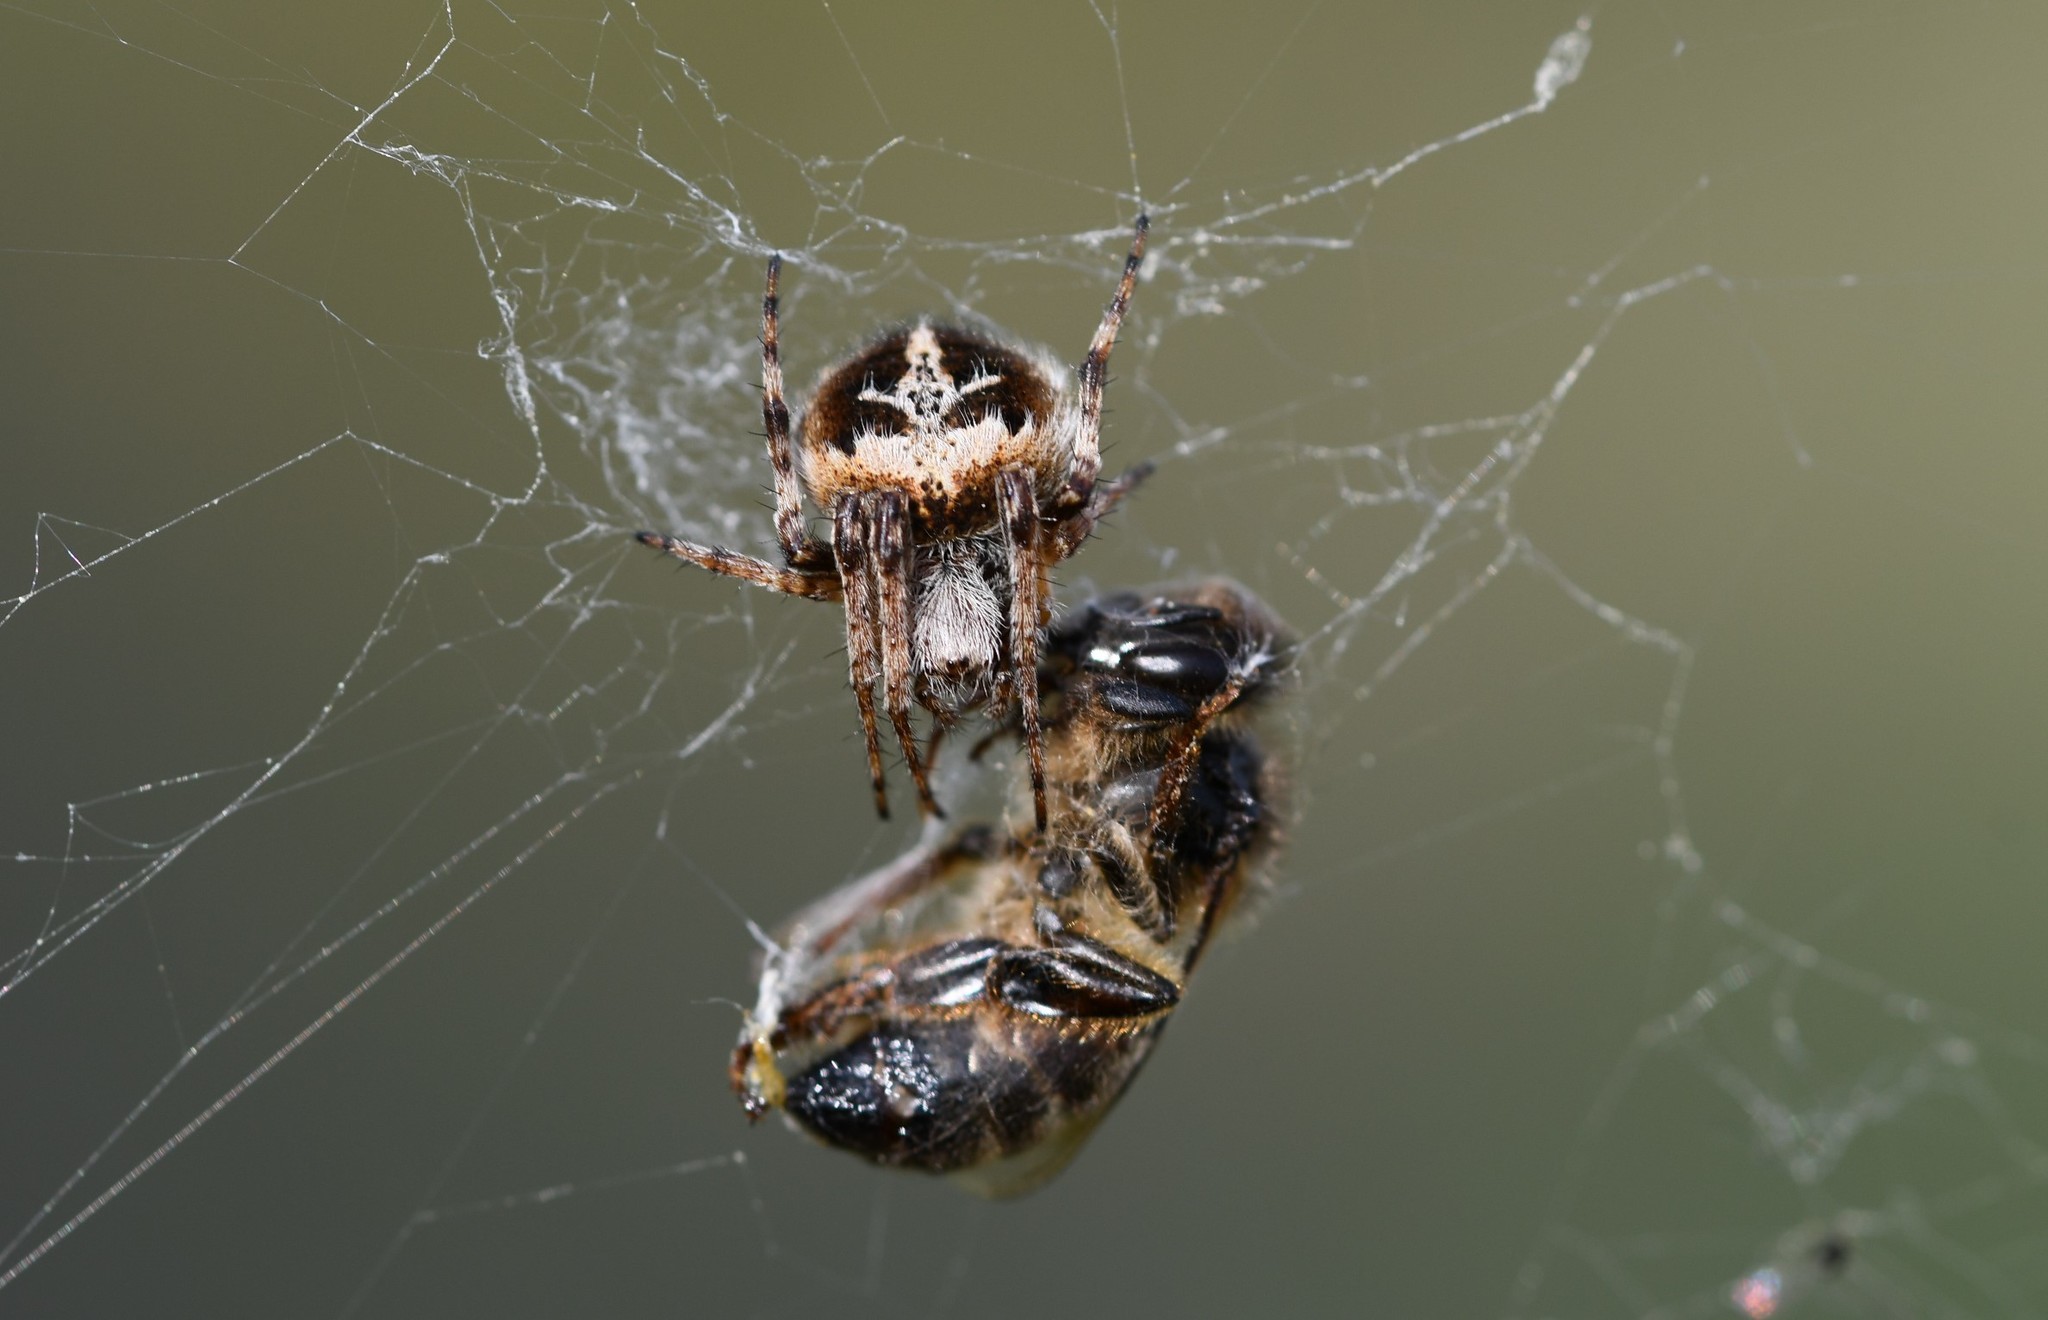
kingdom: Animalia
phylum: Arthropoda
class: Arachnida
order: Araneae
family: Araneidae
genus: Agalenatea
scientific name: Agalenatea redii
